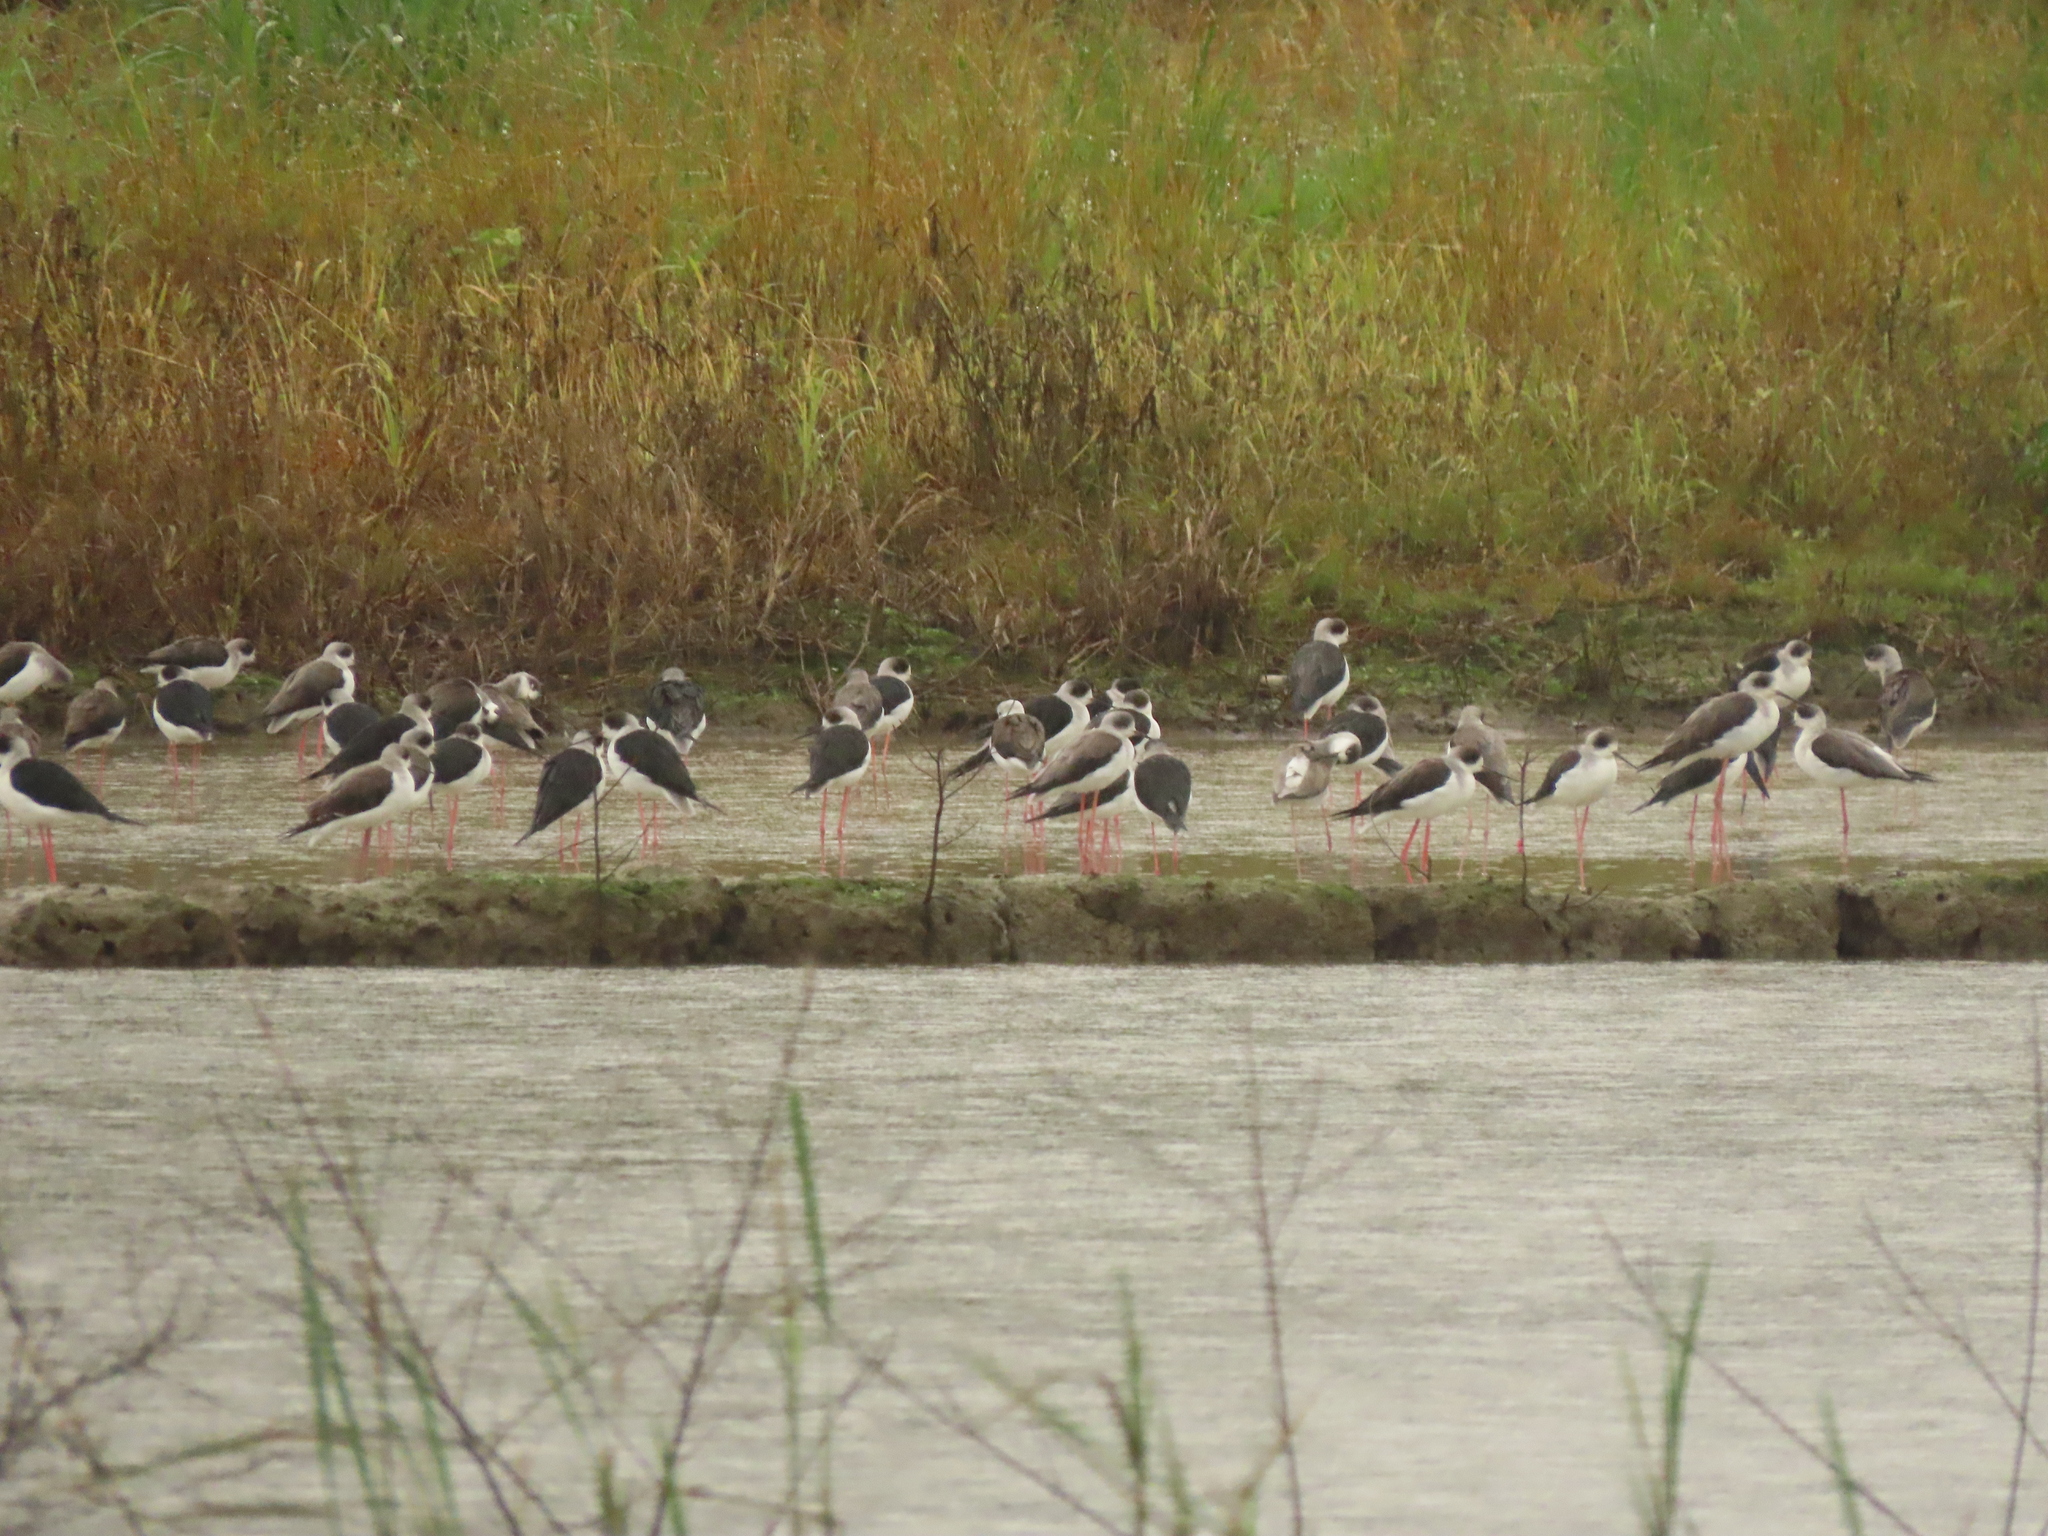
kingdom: Animalia
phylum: Chordata
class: Aves
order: Charadriiformes
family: Recurvirostridae
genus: Himantopus
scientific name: Himantopus himantopus
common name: Black-winged stilt
